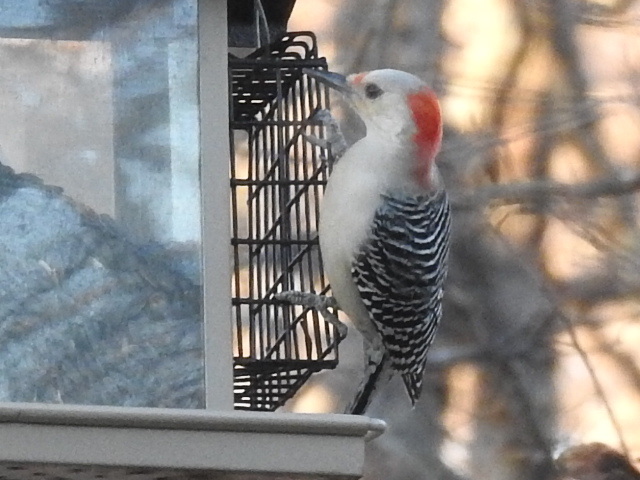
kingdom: Animalia
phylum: Chordata
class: Aves
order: Piciformes
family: Picidae
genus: Melanerpes
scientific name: Melanerpes carolinus
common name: Red-bellied woodpecker
